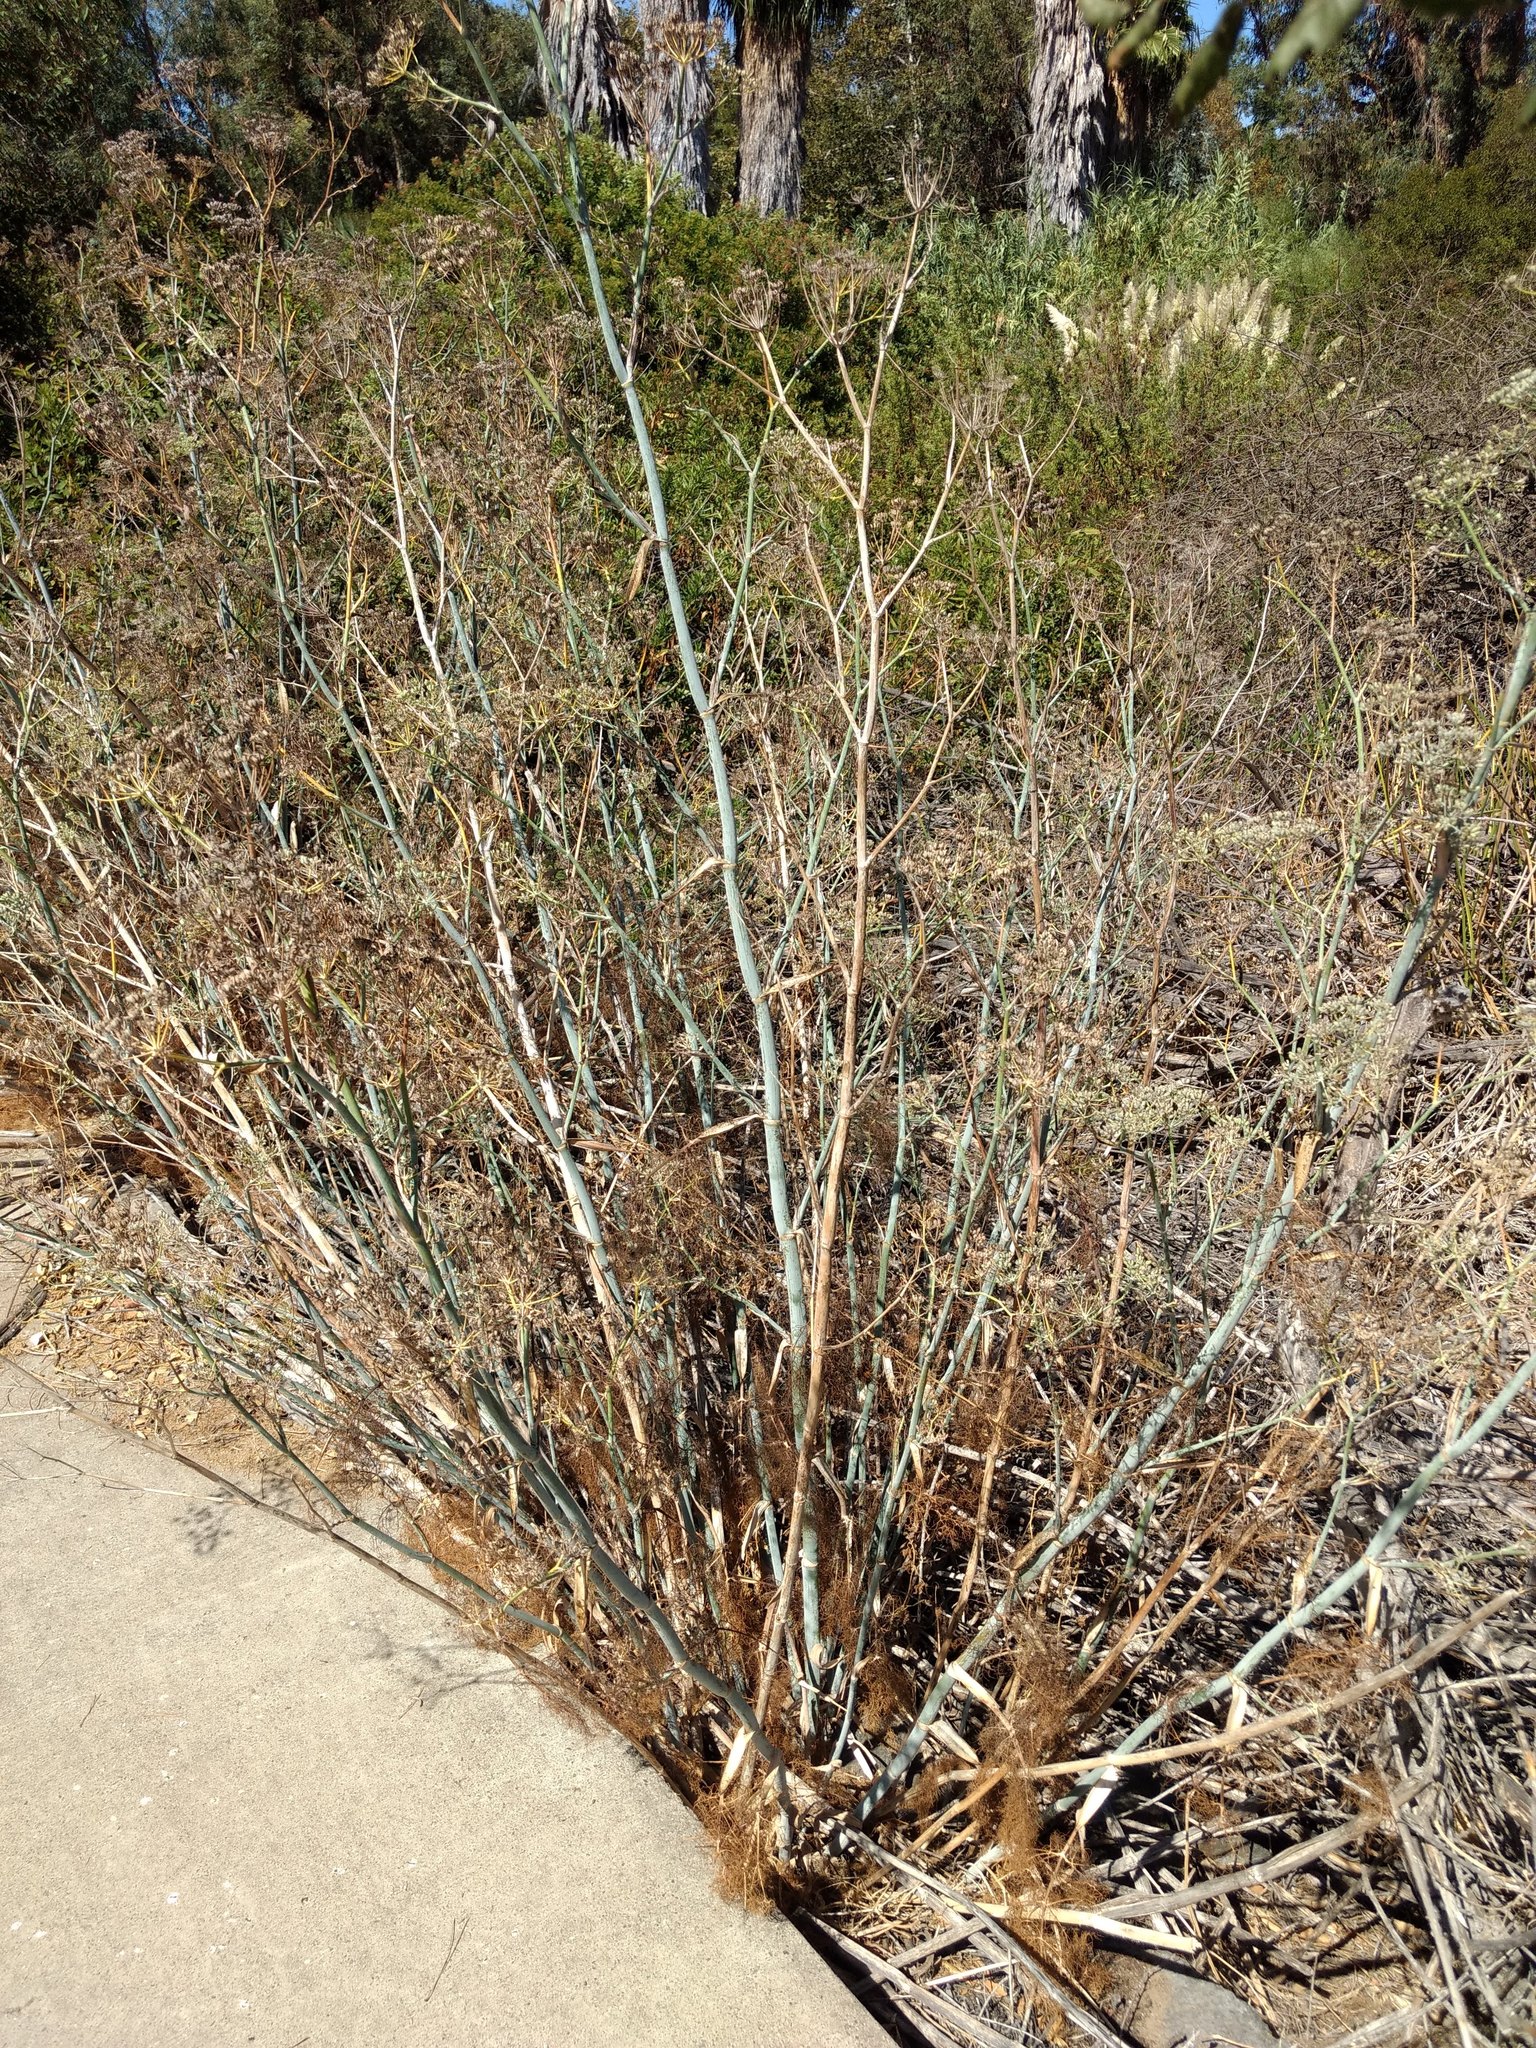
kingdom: Plantae
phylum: Tracheophyta
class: Magnoliopsida
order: Apiales
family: Apiaceae
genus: Foeniculum
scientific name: Foeniculum vulgare
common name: Fennel
